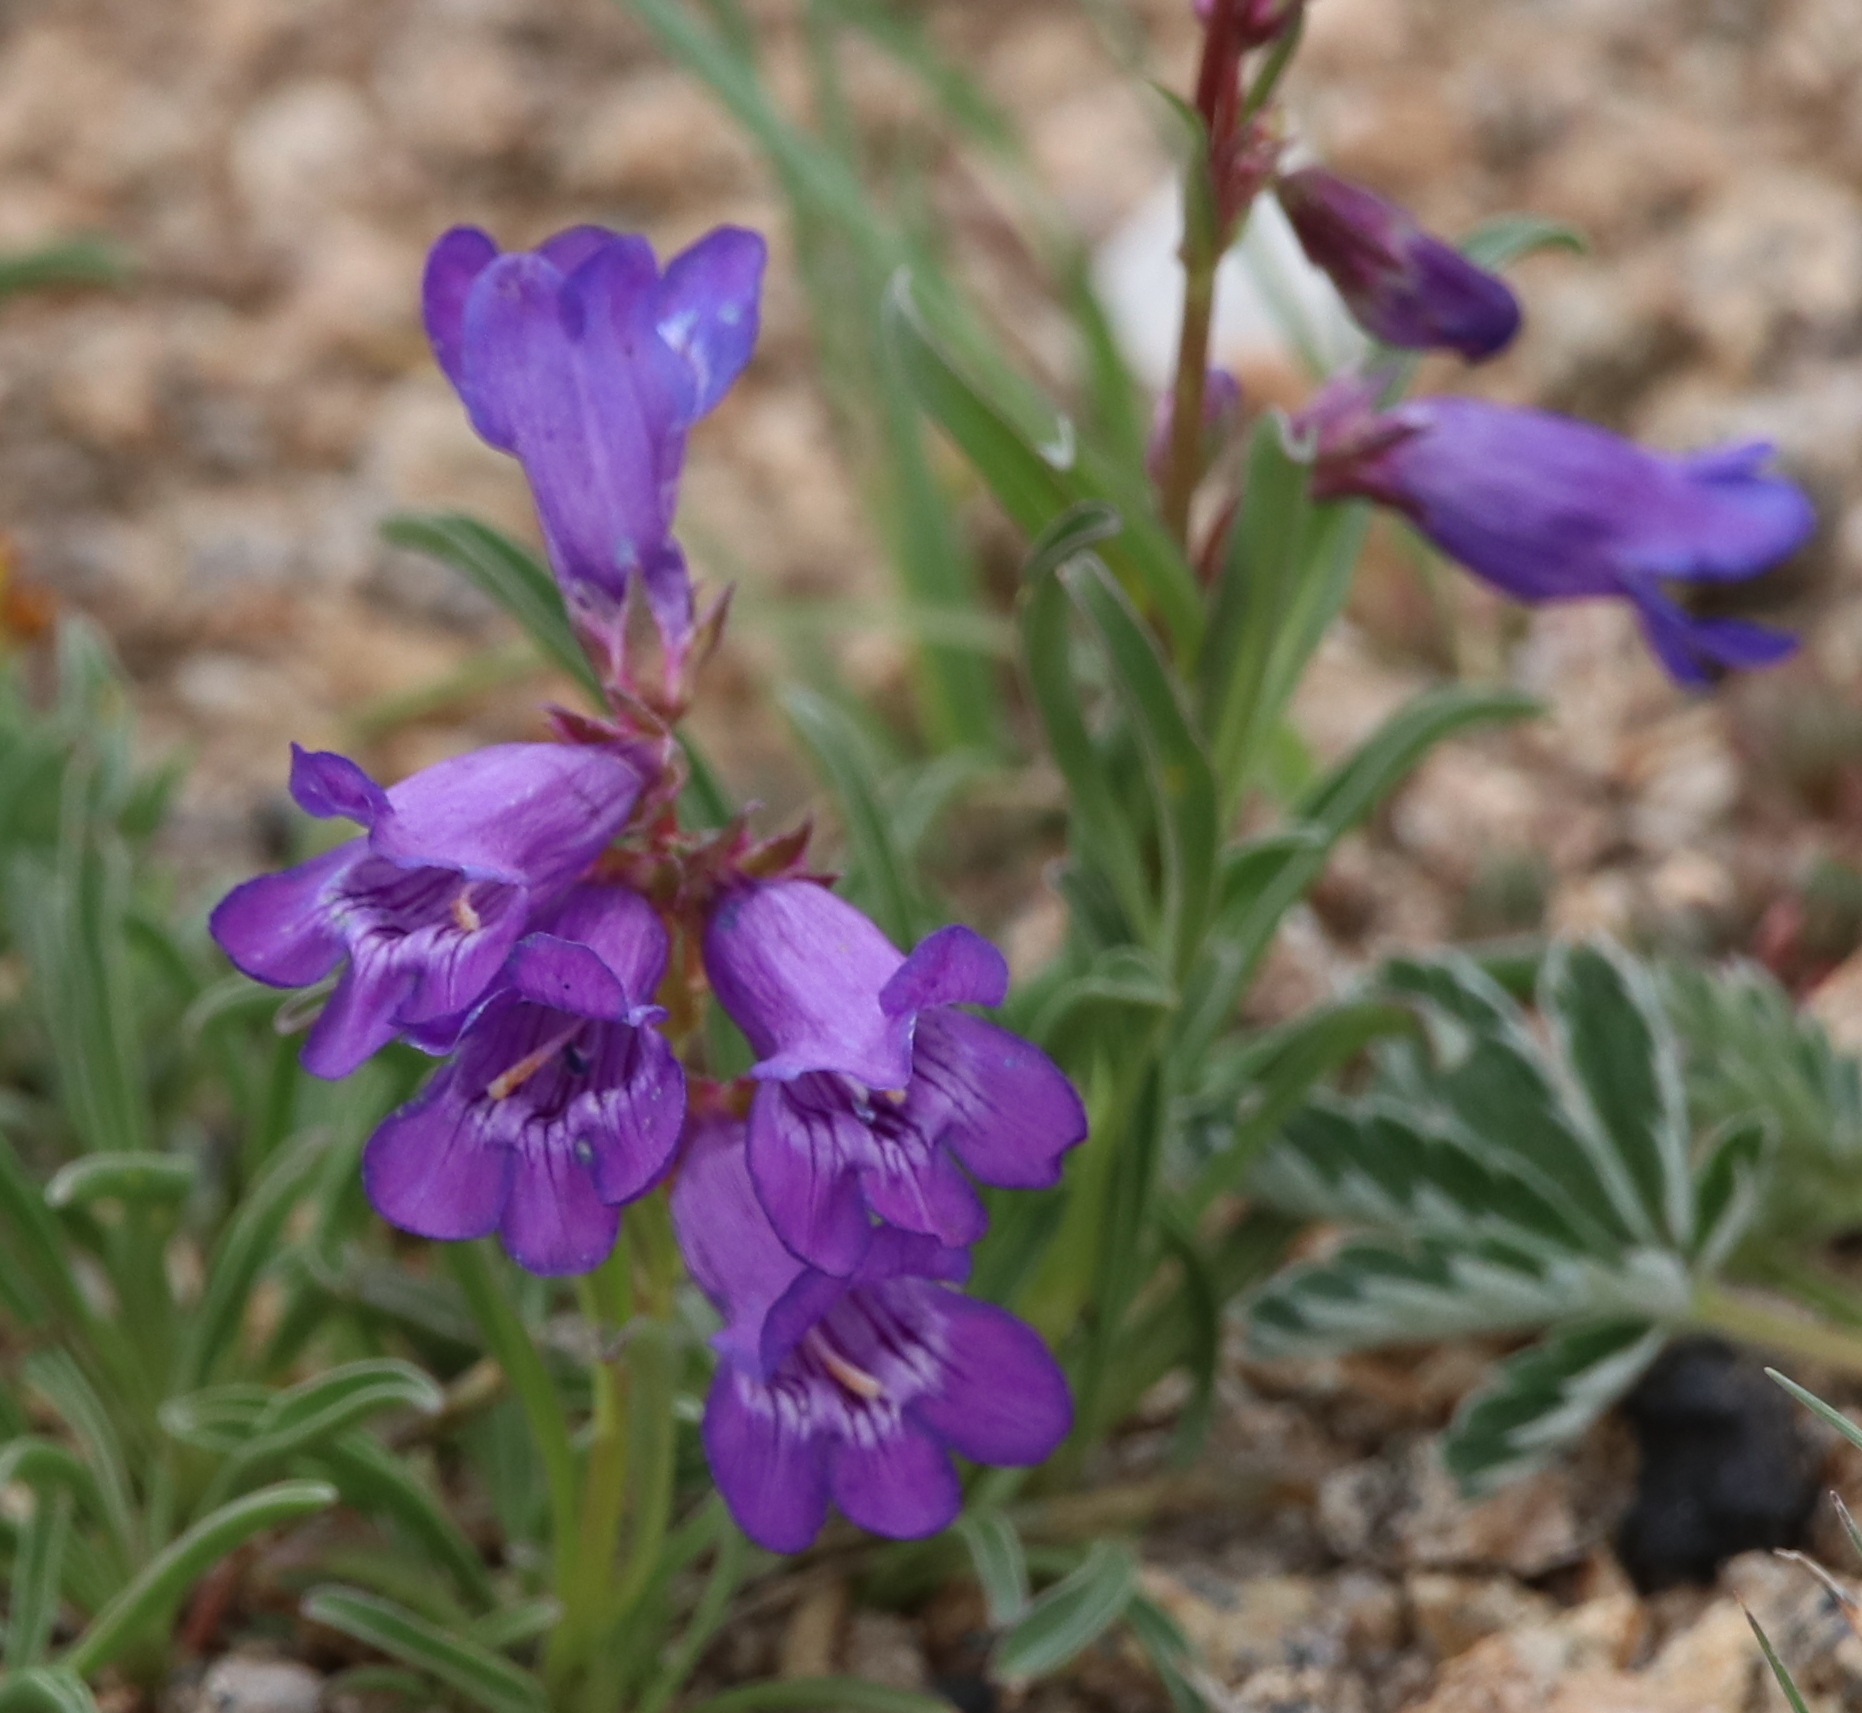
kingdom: Plantae
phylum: Tracheophyta
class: Magnoliopsida
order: Lamiales
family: Plantaginaceae
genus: Penstemon
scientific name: Penstemon hallii
